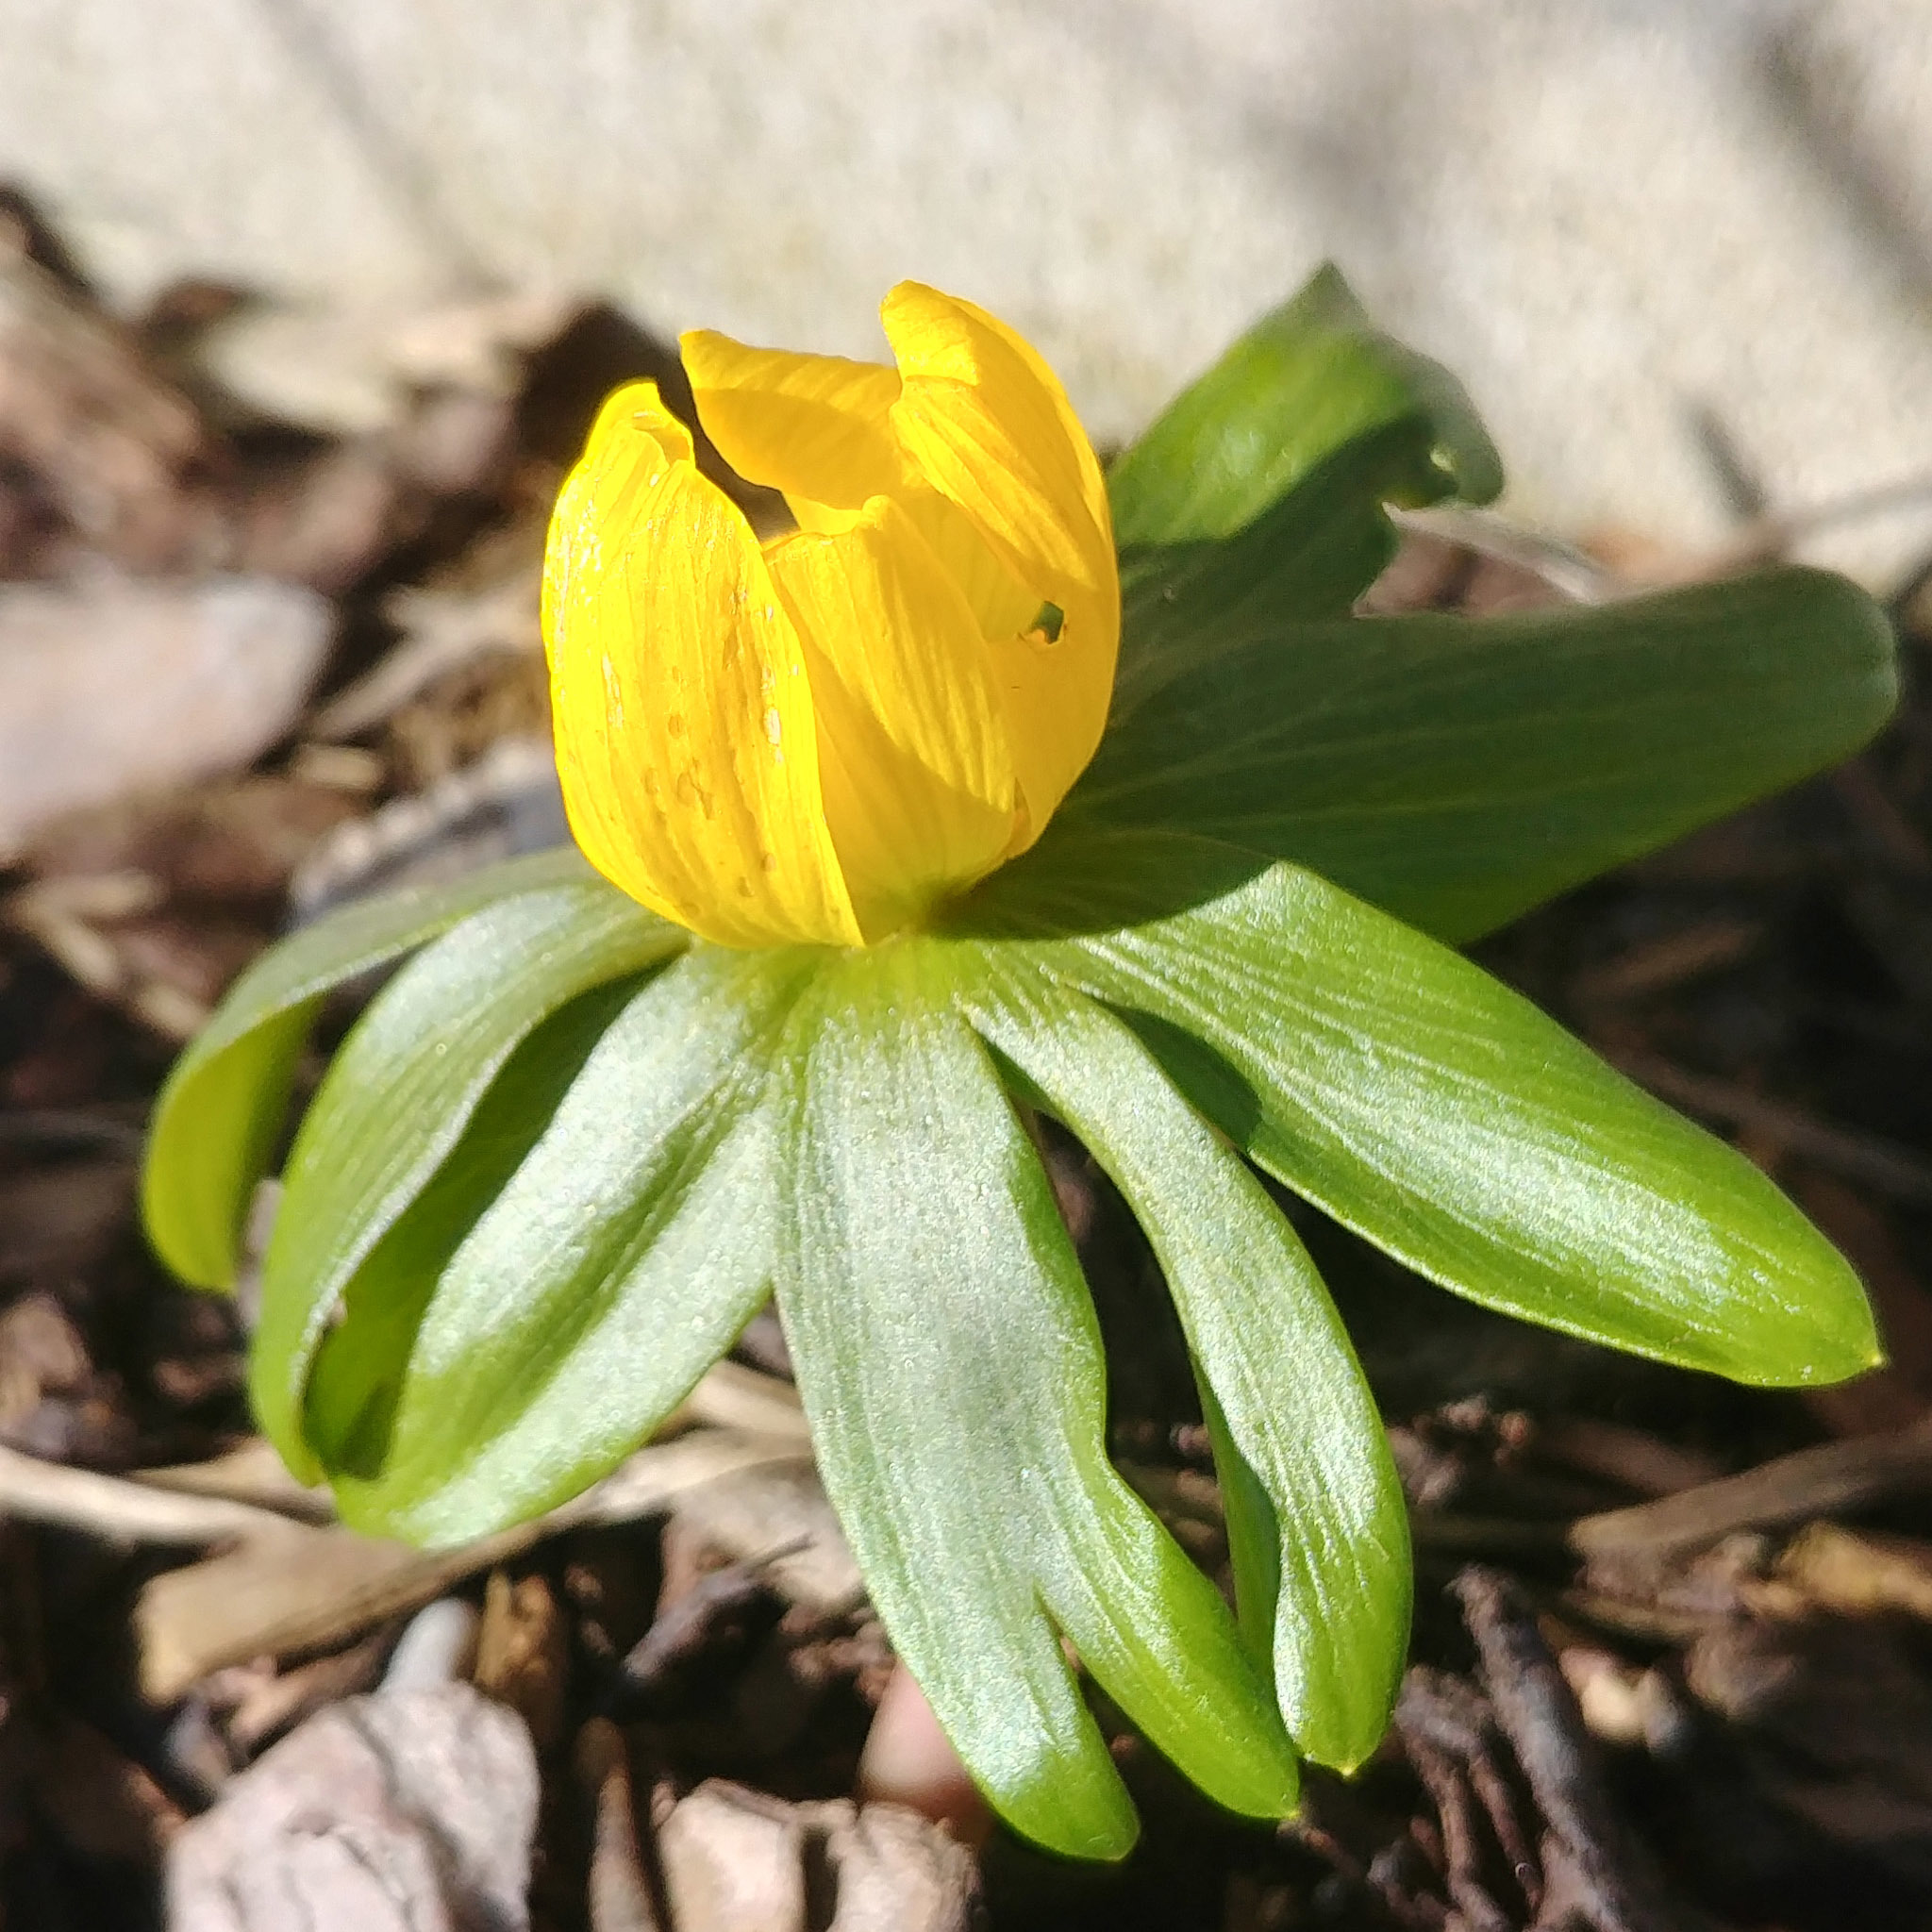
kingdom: Plantae
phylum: Tracheophyta
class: Magnoliopsida
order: Ranunculales
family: Ranunculaceae
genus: Eranthis
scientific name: Eranthis hyemalis
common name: Winter aconite
